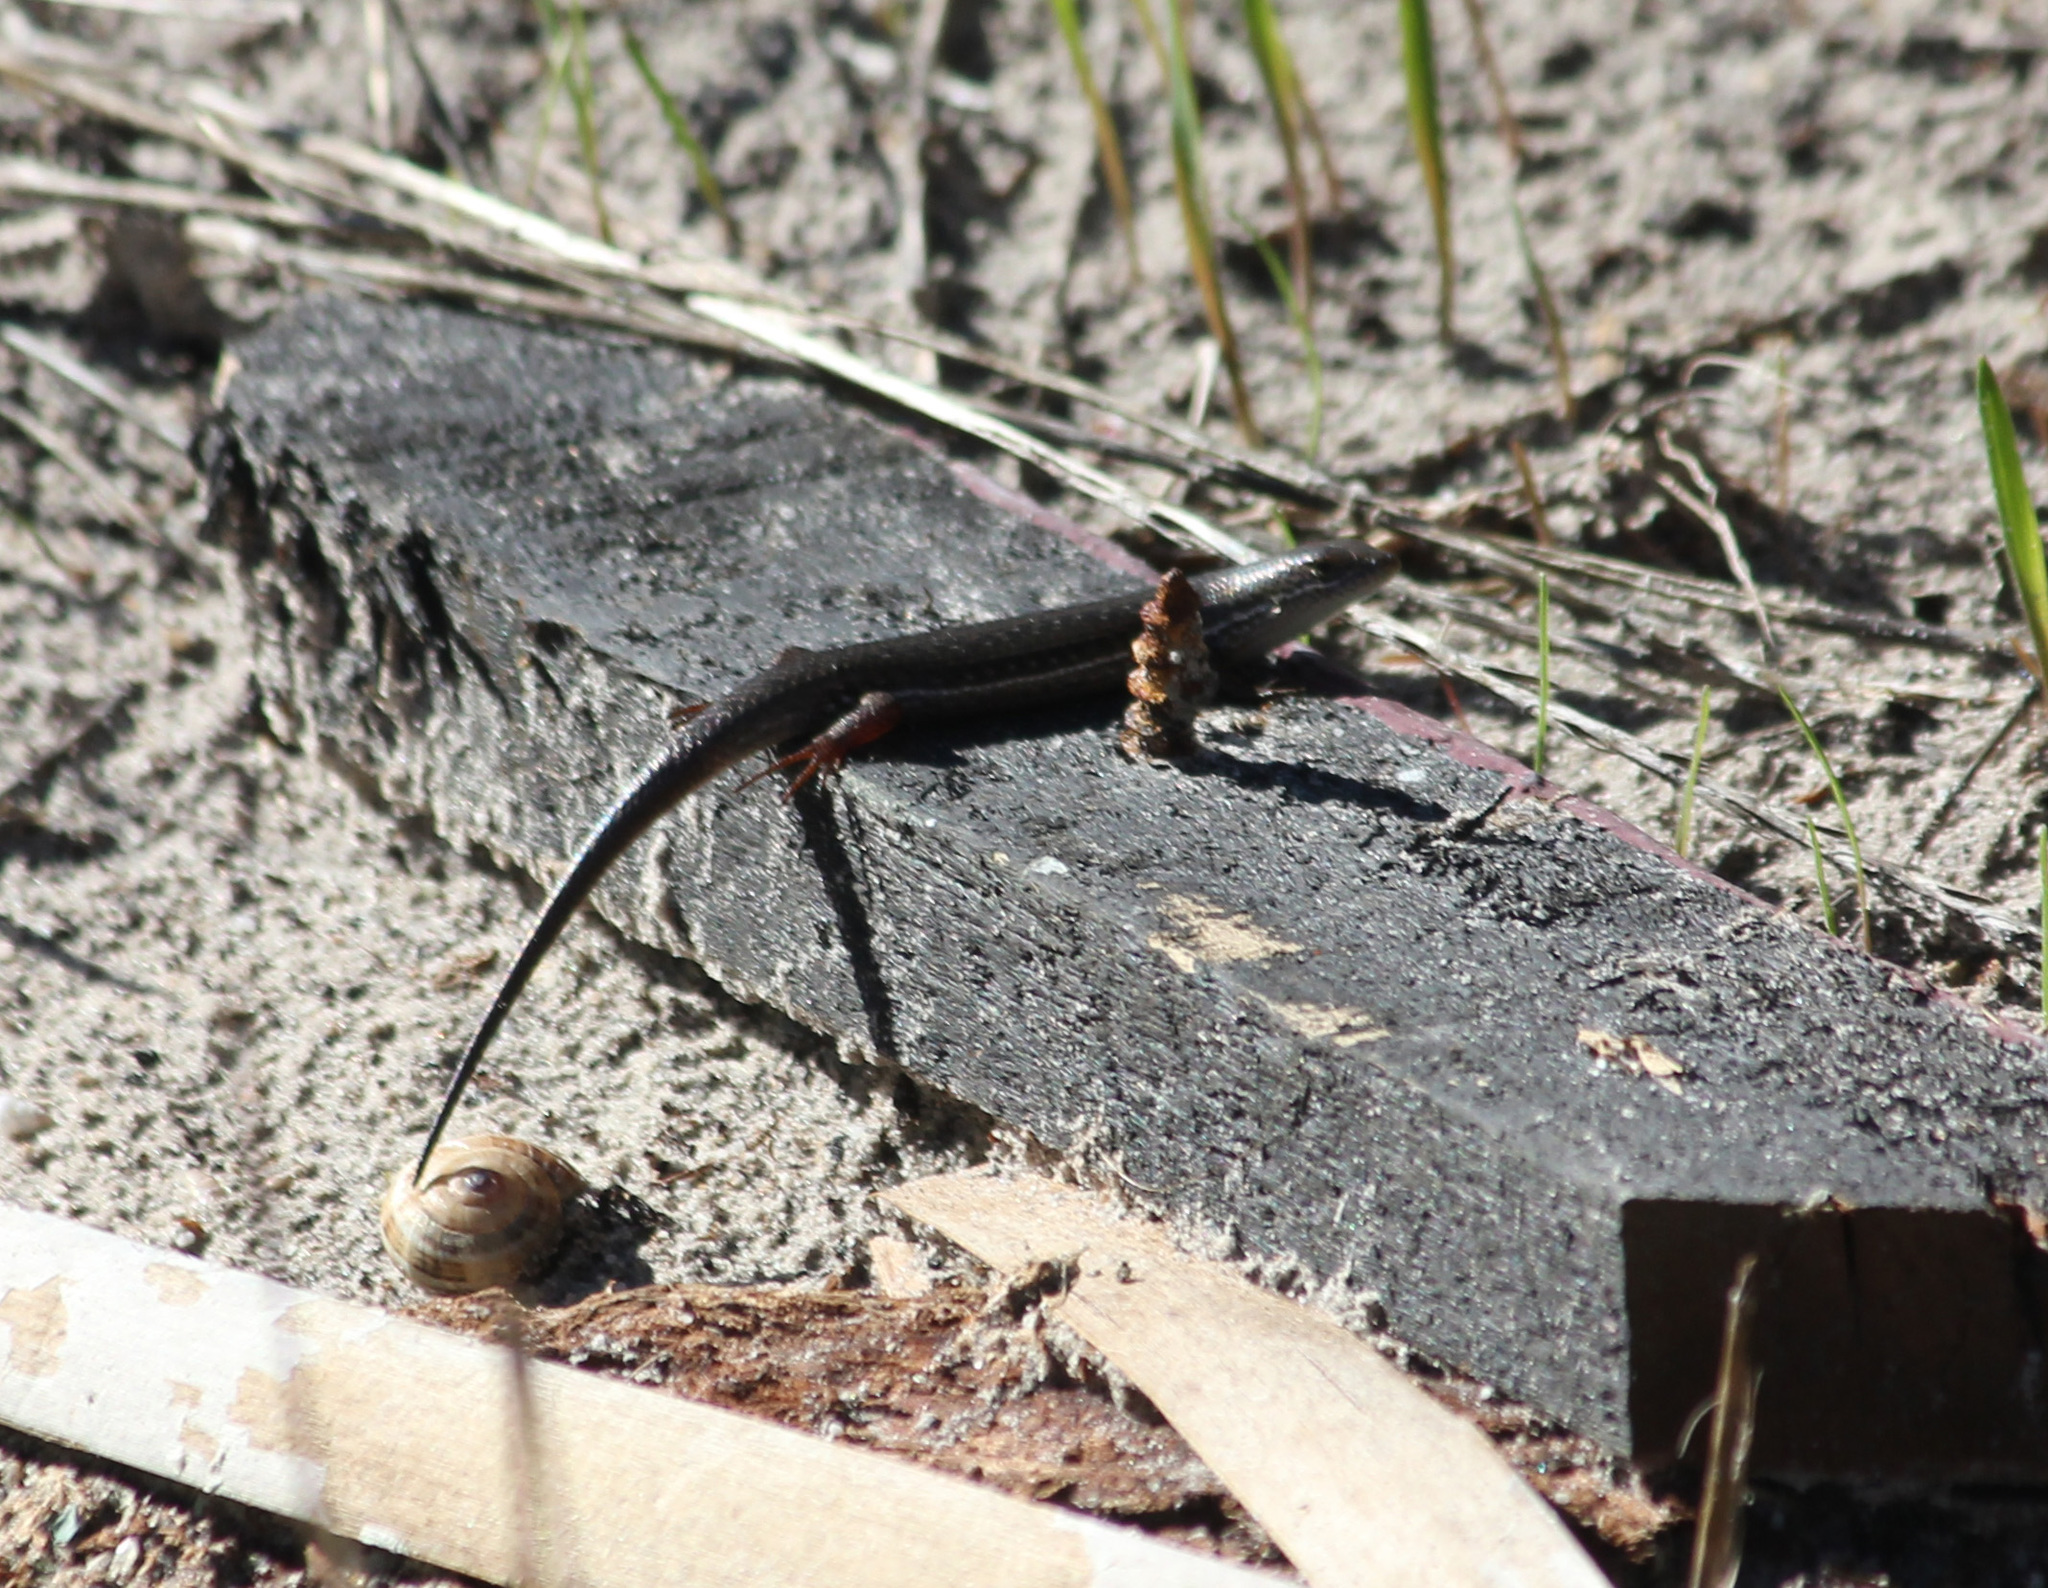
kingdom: Animalia
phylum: Chordata
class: Squamata
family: Scincidae
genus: Trachylepis
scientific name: Trachylepis homalocephala
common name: Red-sided skink
